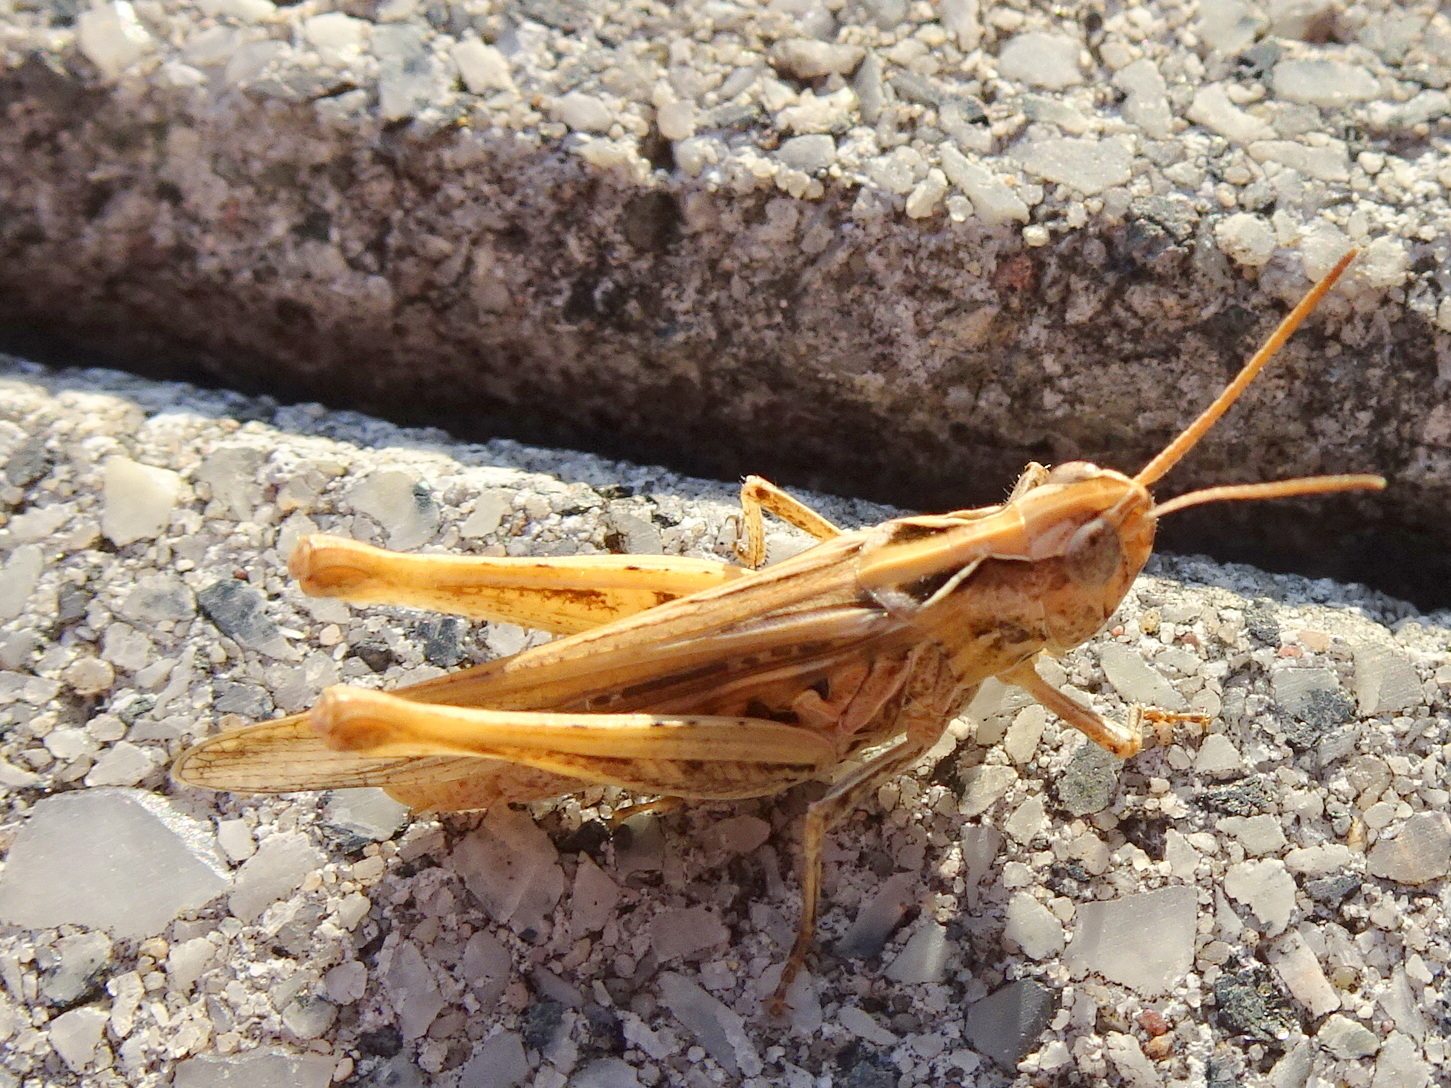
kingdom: Animalia
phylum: Arthropoda
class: Insecta
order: Orthoptera
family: Acrididae
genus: Chorthippus
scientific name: Chorthippus brunneus
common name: Field grasshopper
